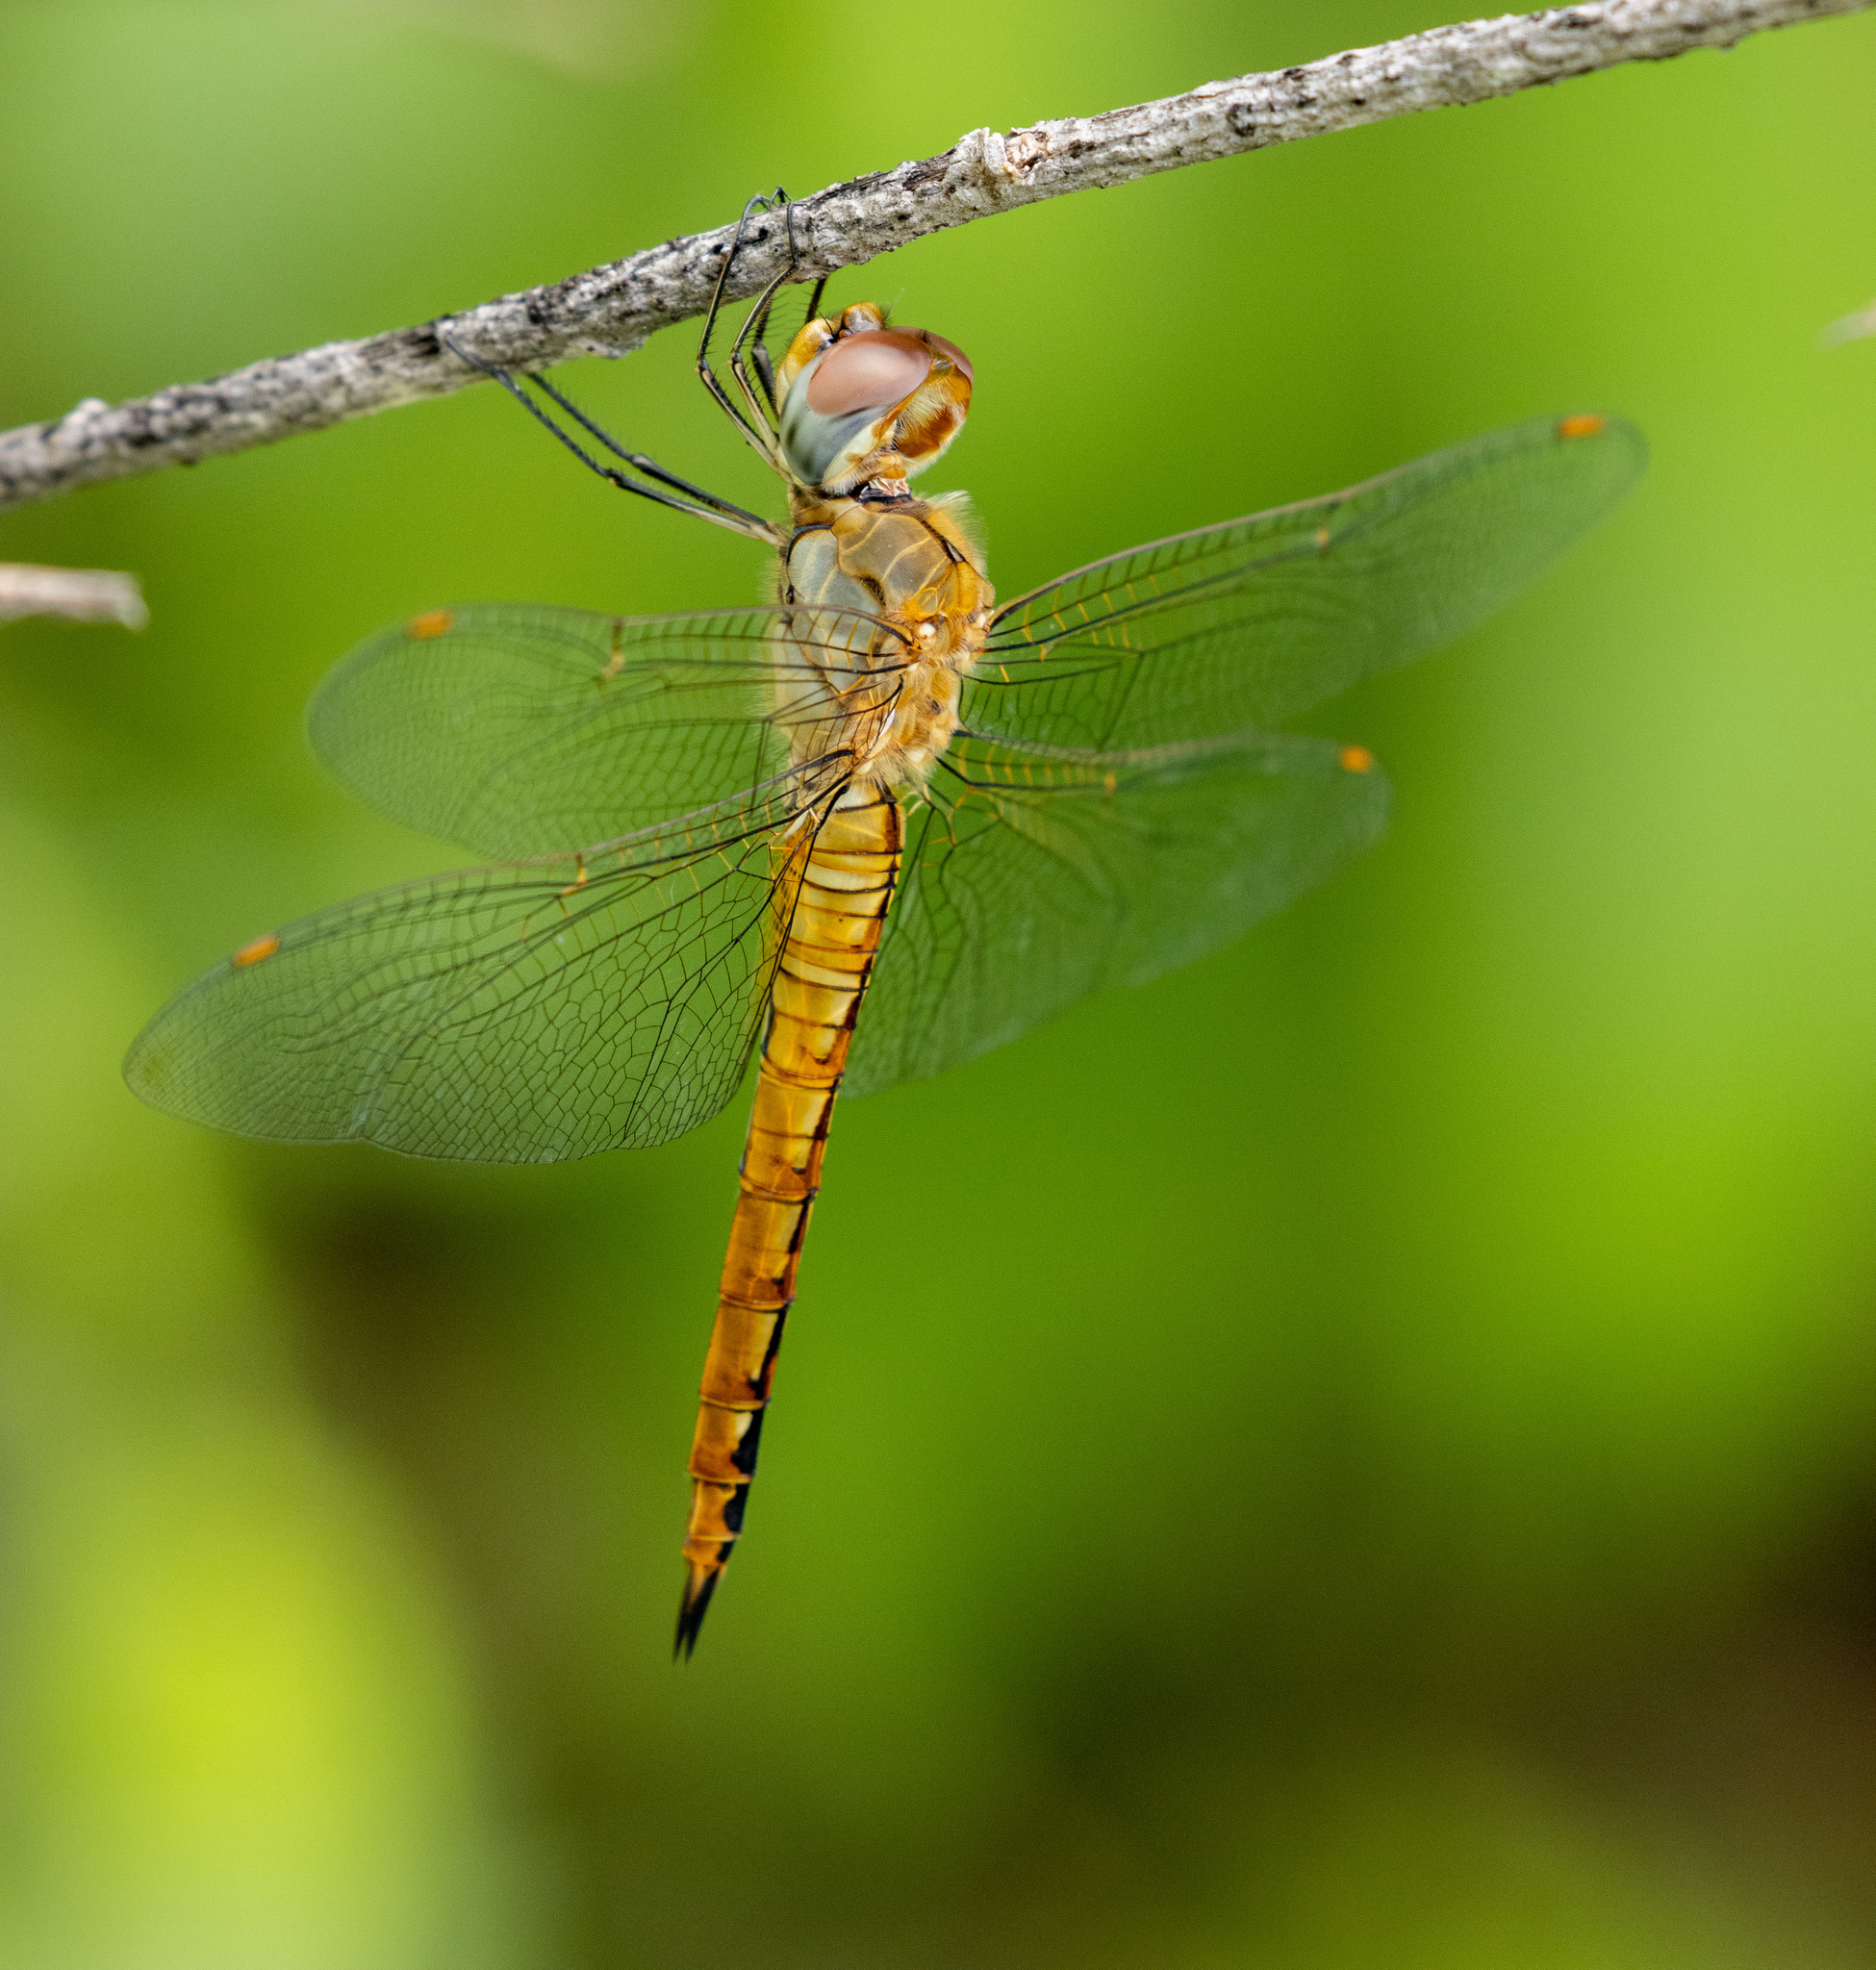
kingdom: Animalia
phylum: Arthropoda
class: Insecta
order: Odonata
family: Libellulidae
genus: Pantala
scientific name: Pantala flavescens
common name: Wandering glider
